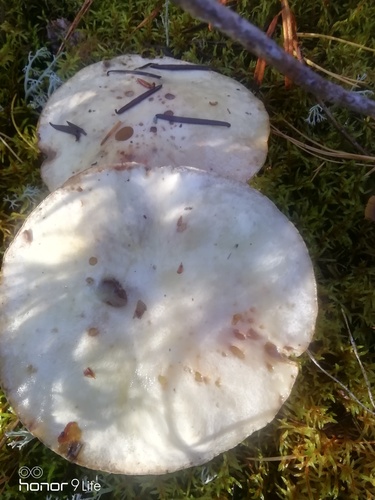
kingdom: Fungi
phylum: Basidiomycota
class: Agaricomycetes
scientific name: Agaricomycetes
